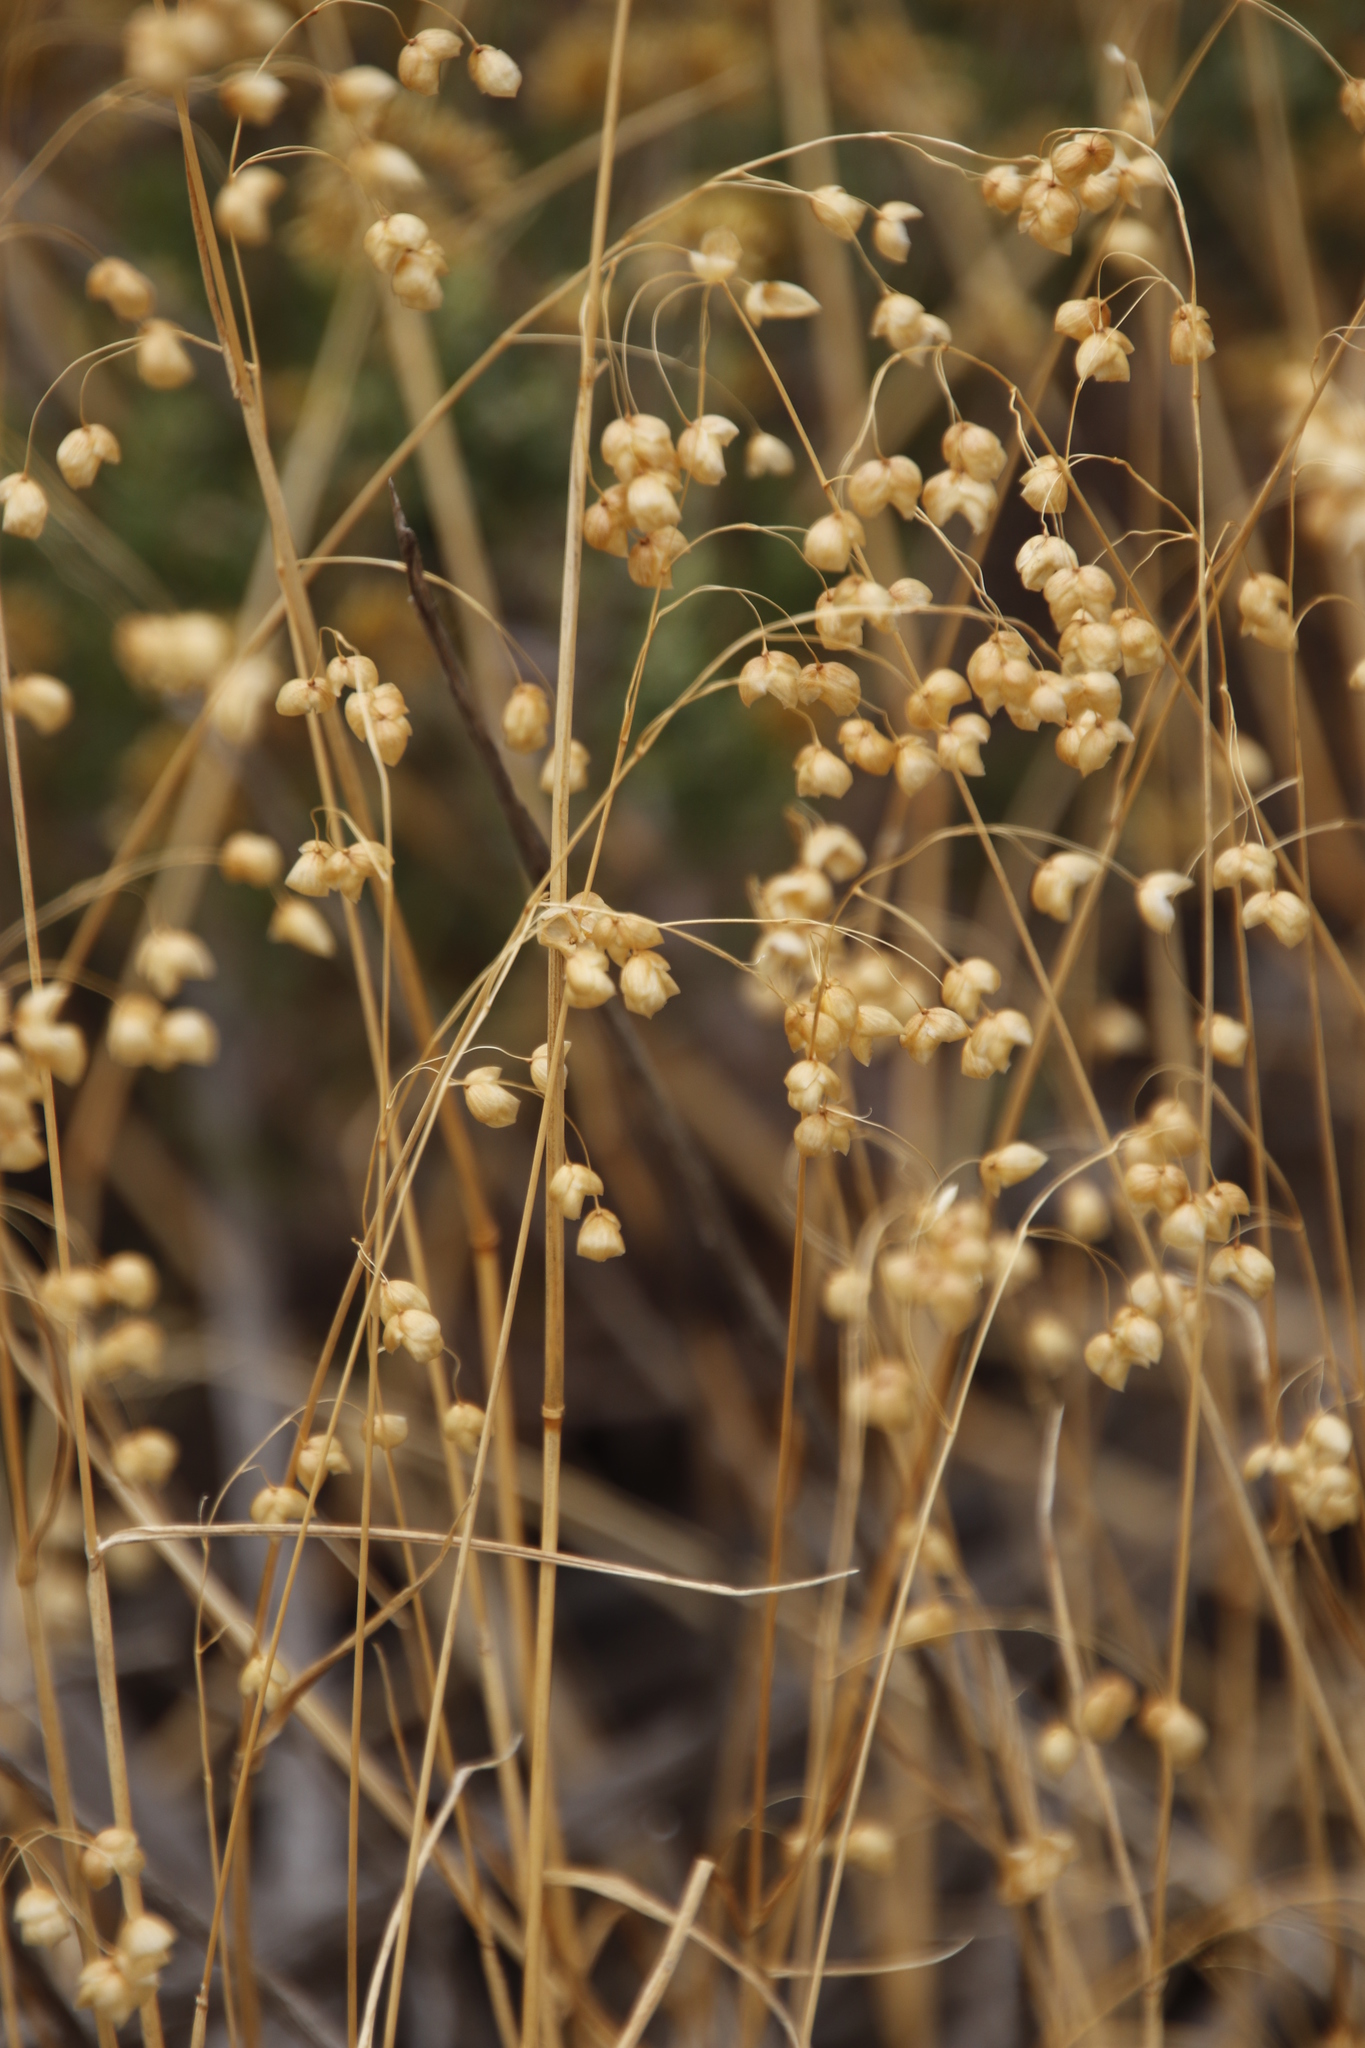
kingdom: Plantae
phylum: Tracheophyta
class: Liliopsida
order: Poales
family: Poaceae
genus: Briza
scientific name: Briza maxima
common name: Big quakinggrass
